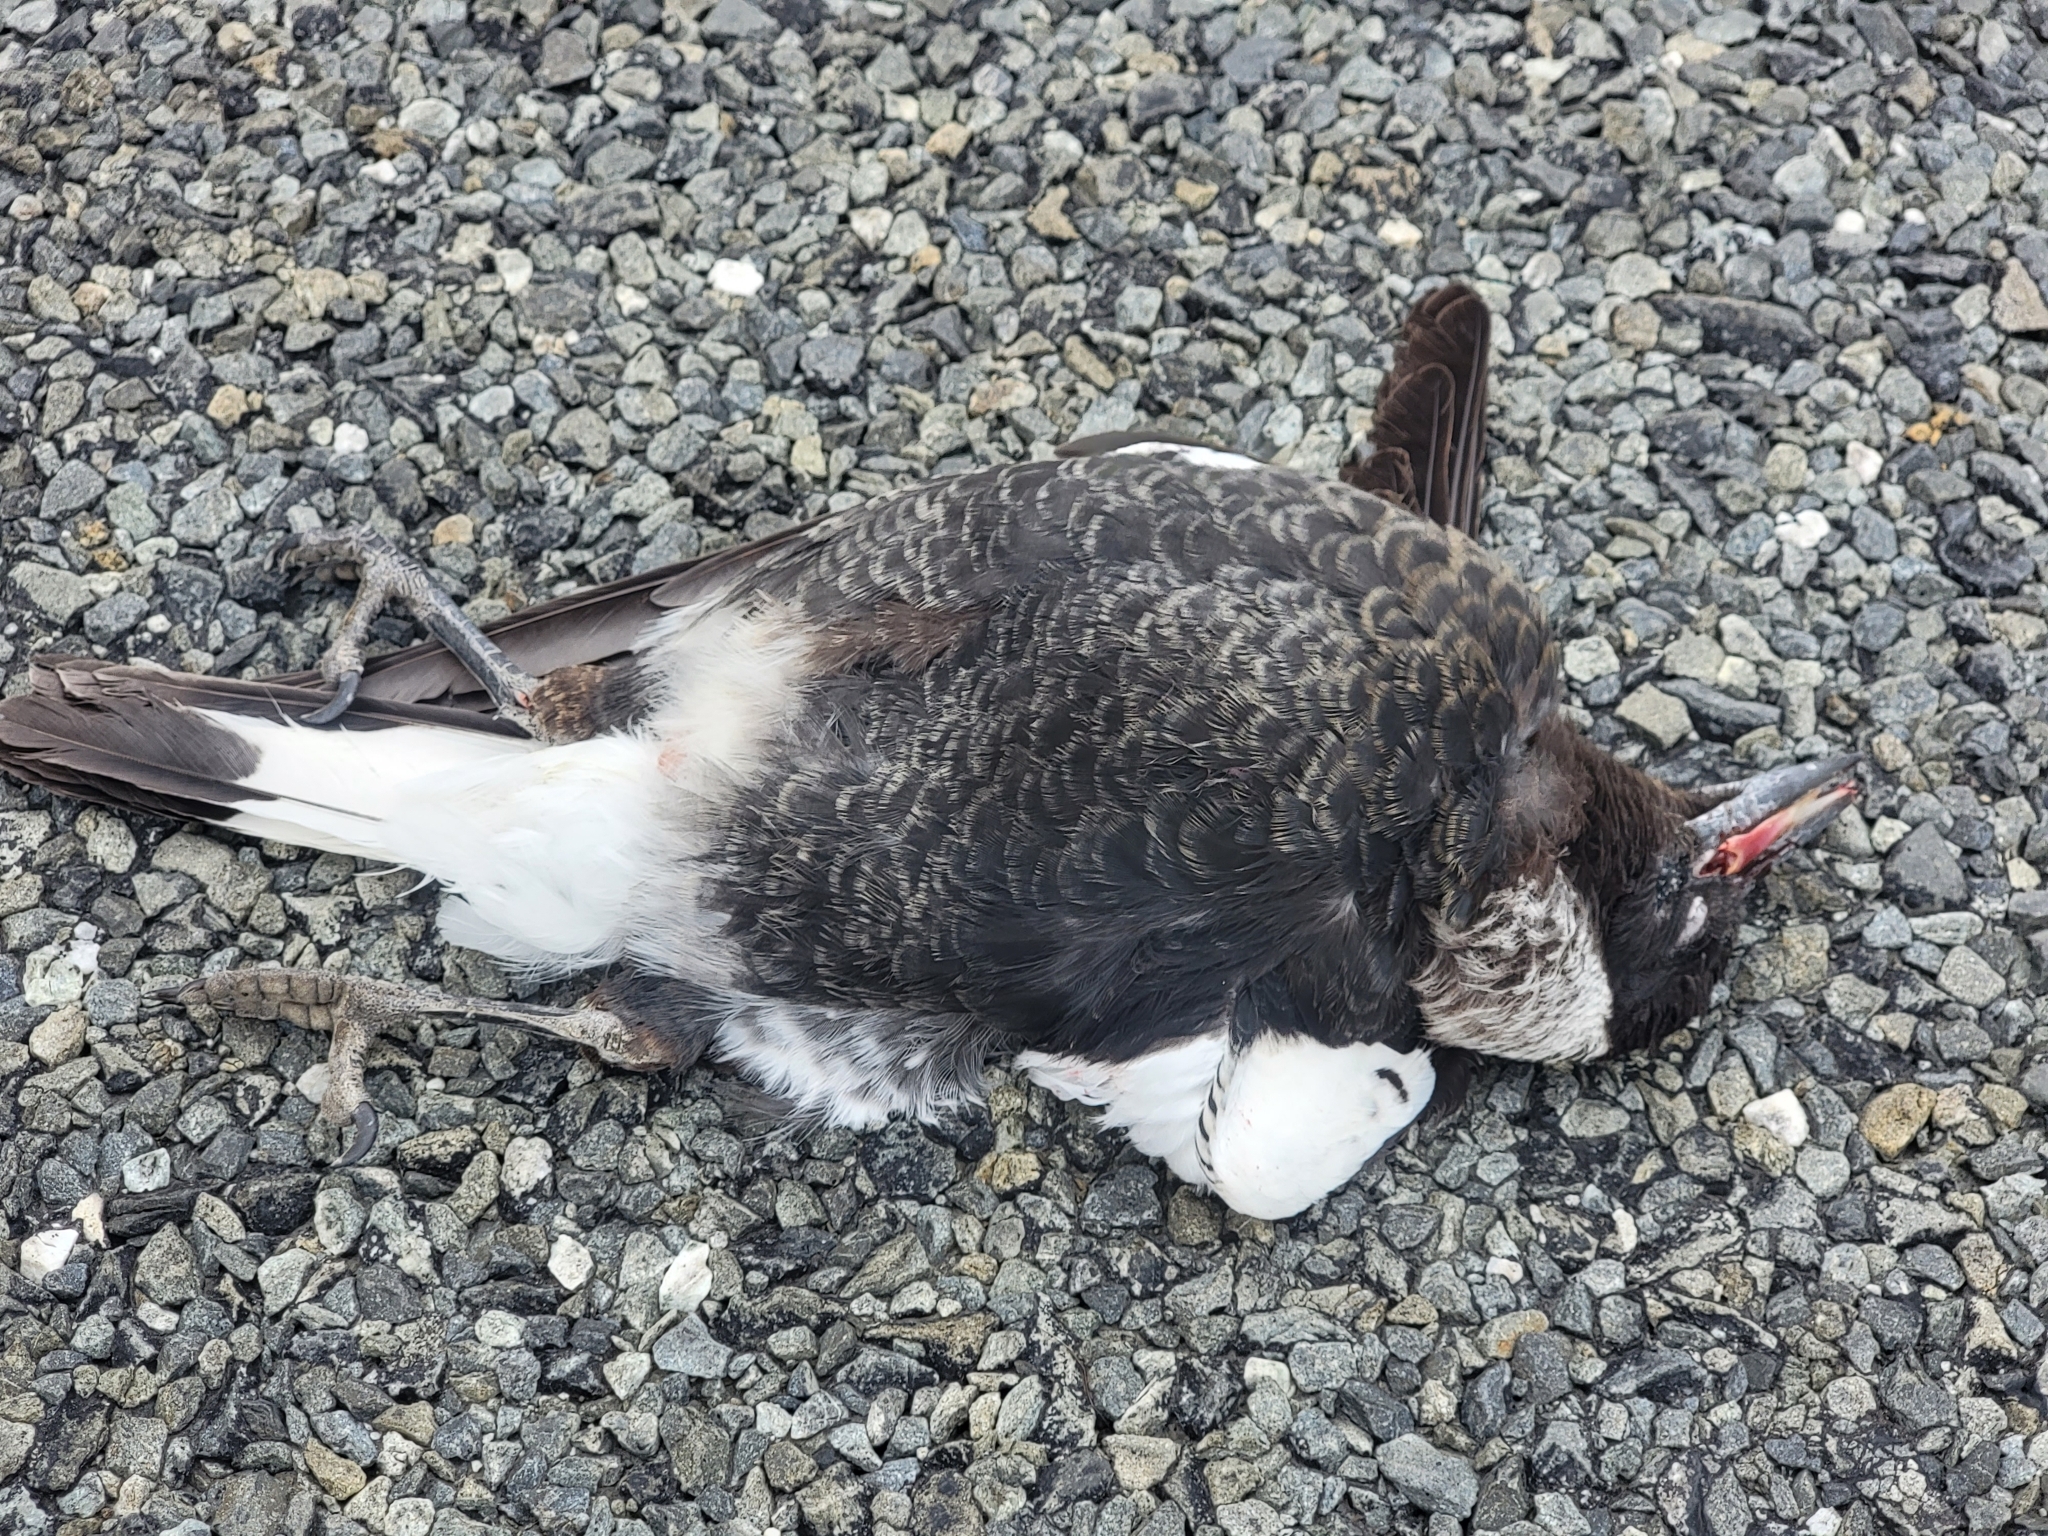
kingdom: Animalia
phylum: Chordata
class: Aves
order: Passeriformes
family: Cracticidae
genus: Gymnorhina
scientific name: Gymnorhina tibicen
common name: Australian magpie
